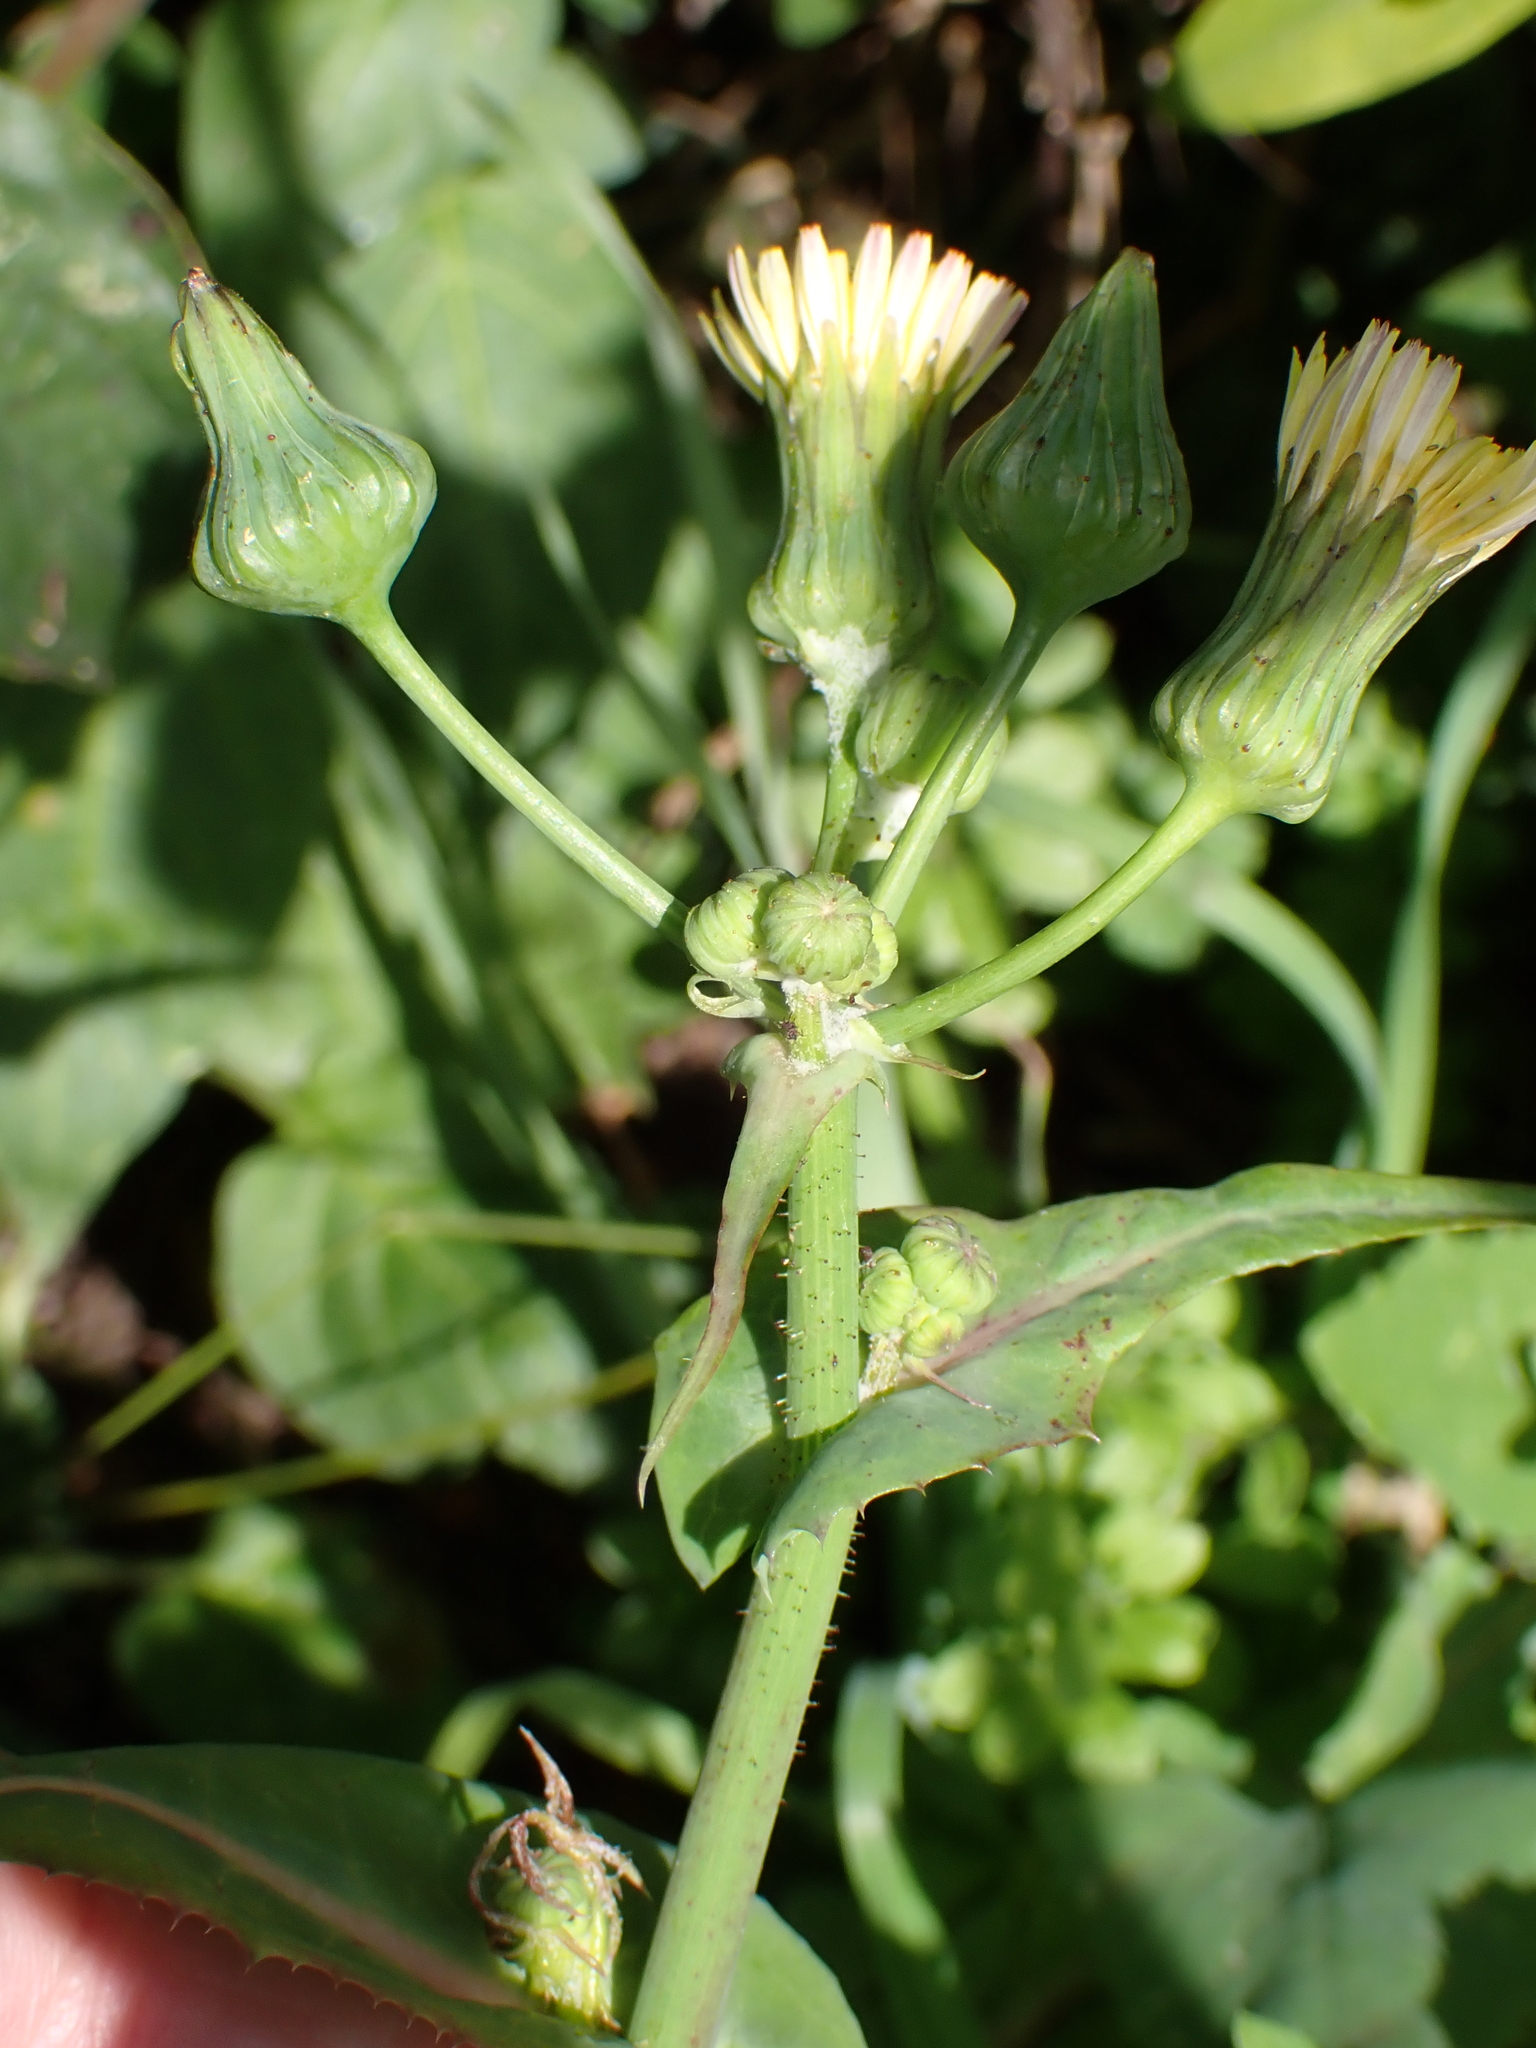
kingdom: Plantae
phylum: Tracheophyta
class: Magnoliopsida
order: Asterales
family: Asteraceae
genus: Sonchus
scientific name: Sonchus oleraceus
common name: Common sowthistle
